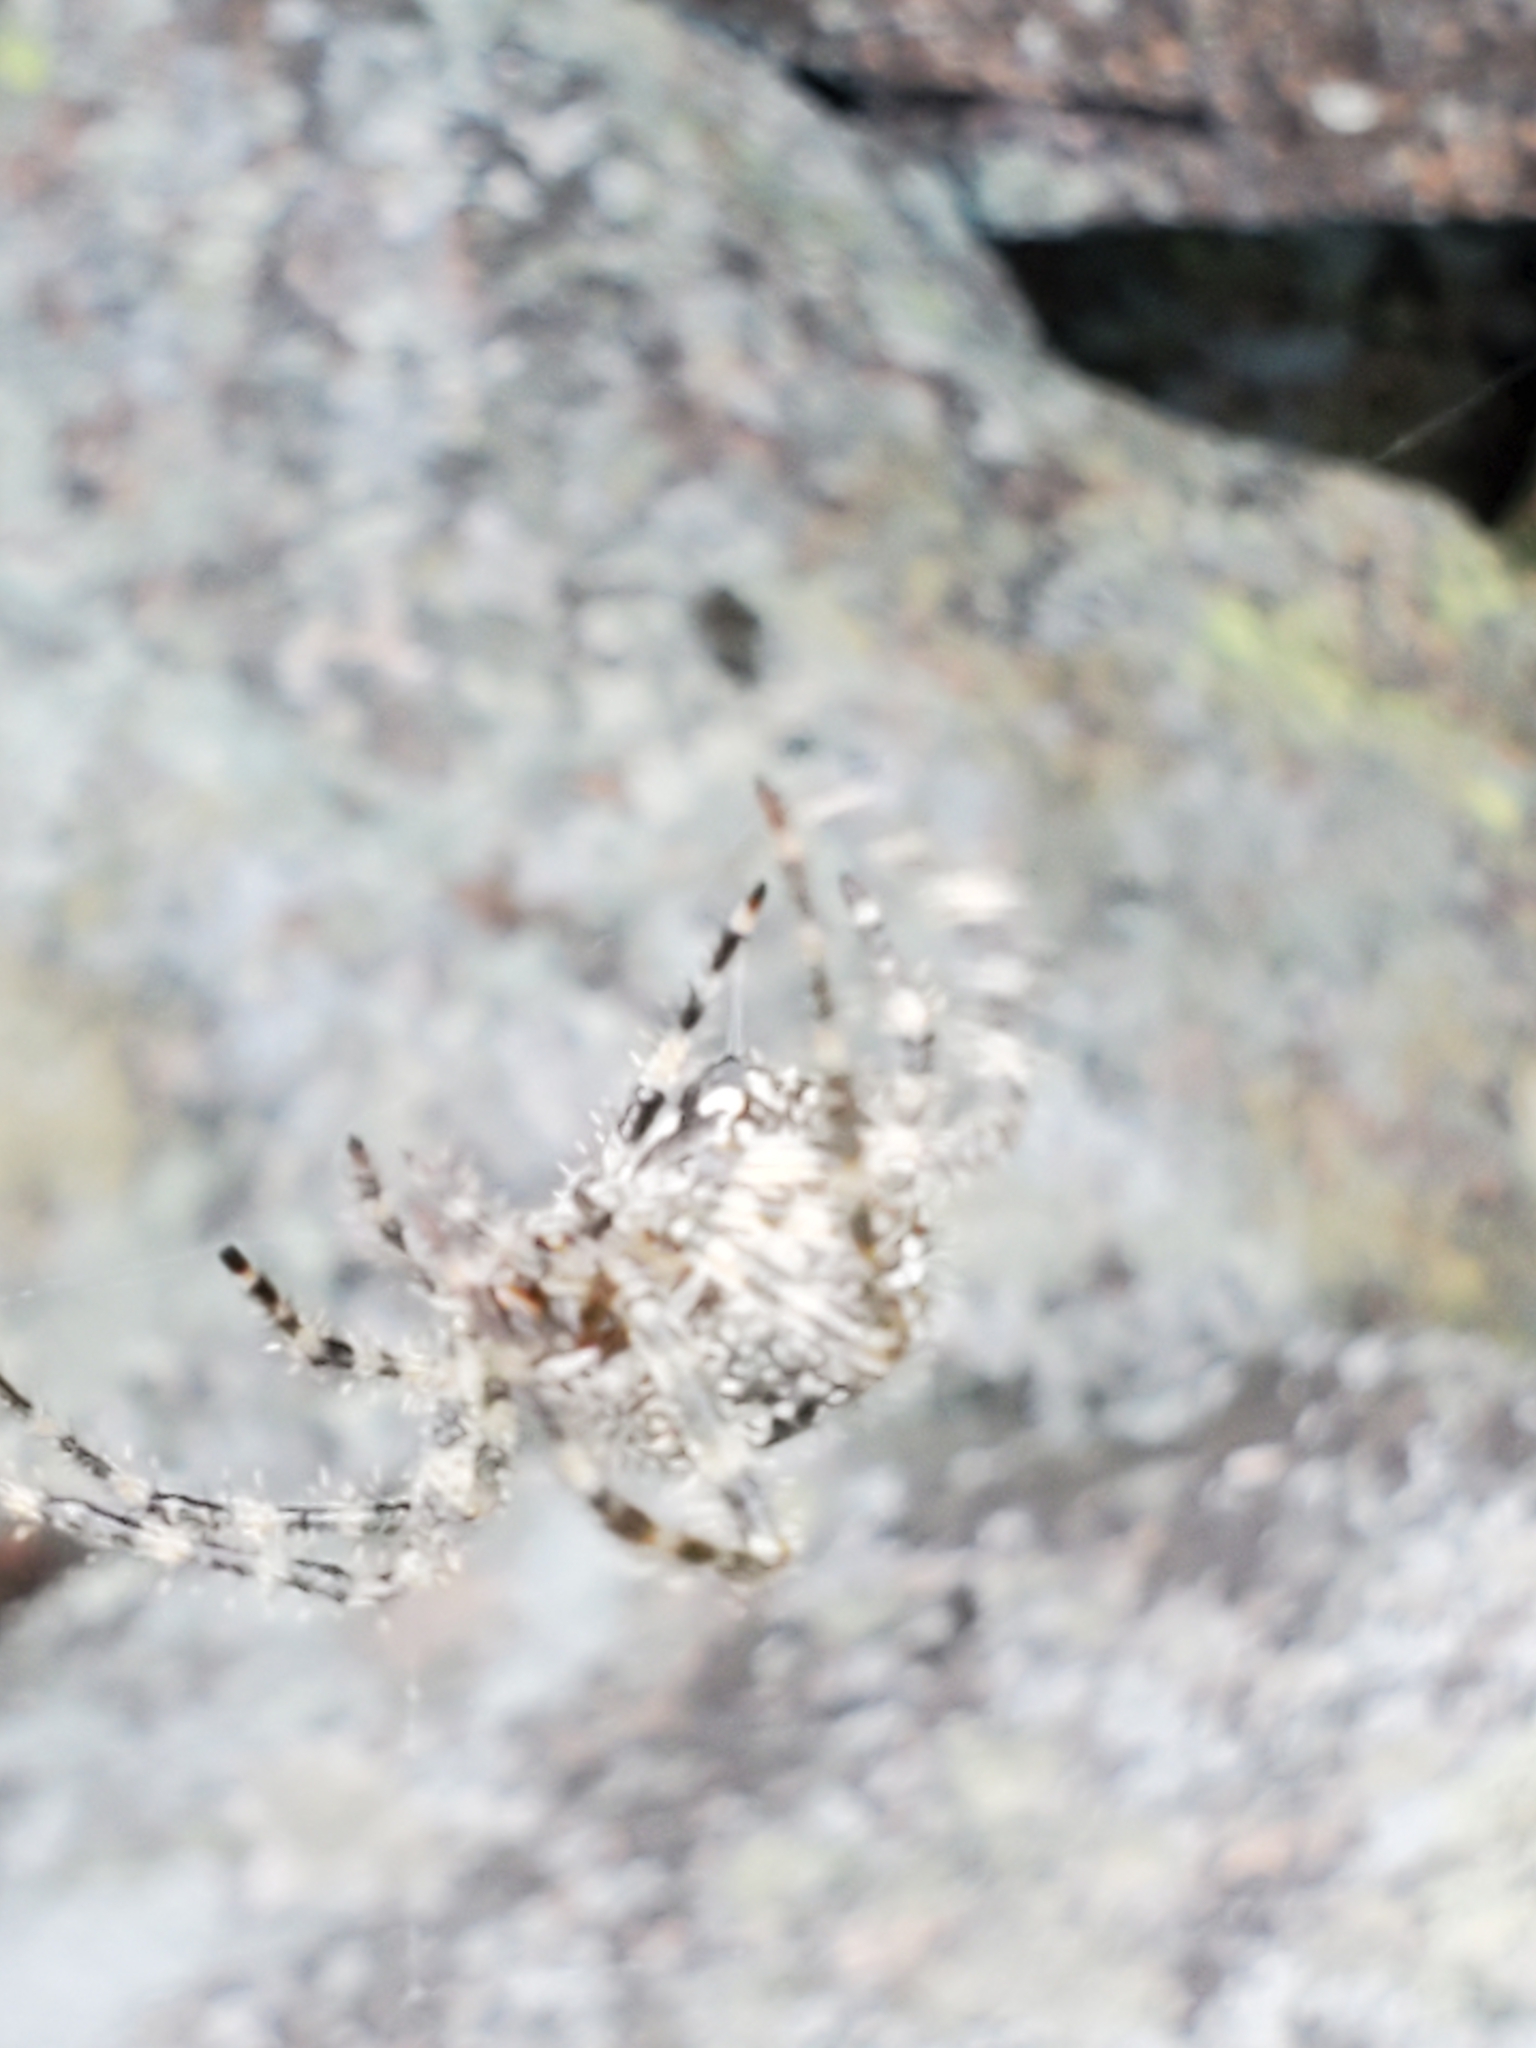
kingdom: Animalia
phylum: Arthropoda
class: Arachnida
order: Araneae
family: Araneidae
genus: Araneus
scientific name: Araneus cavaticus
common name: Barn orbweaver
